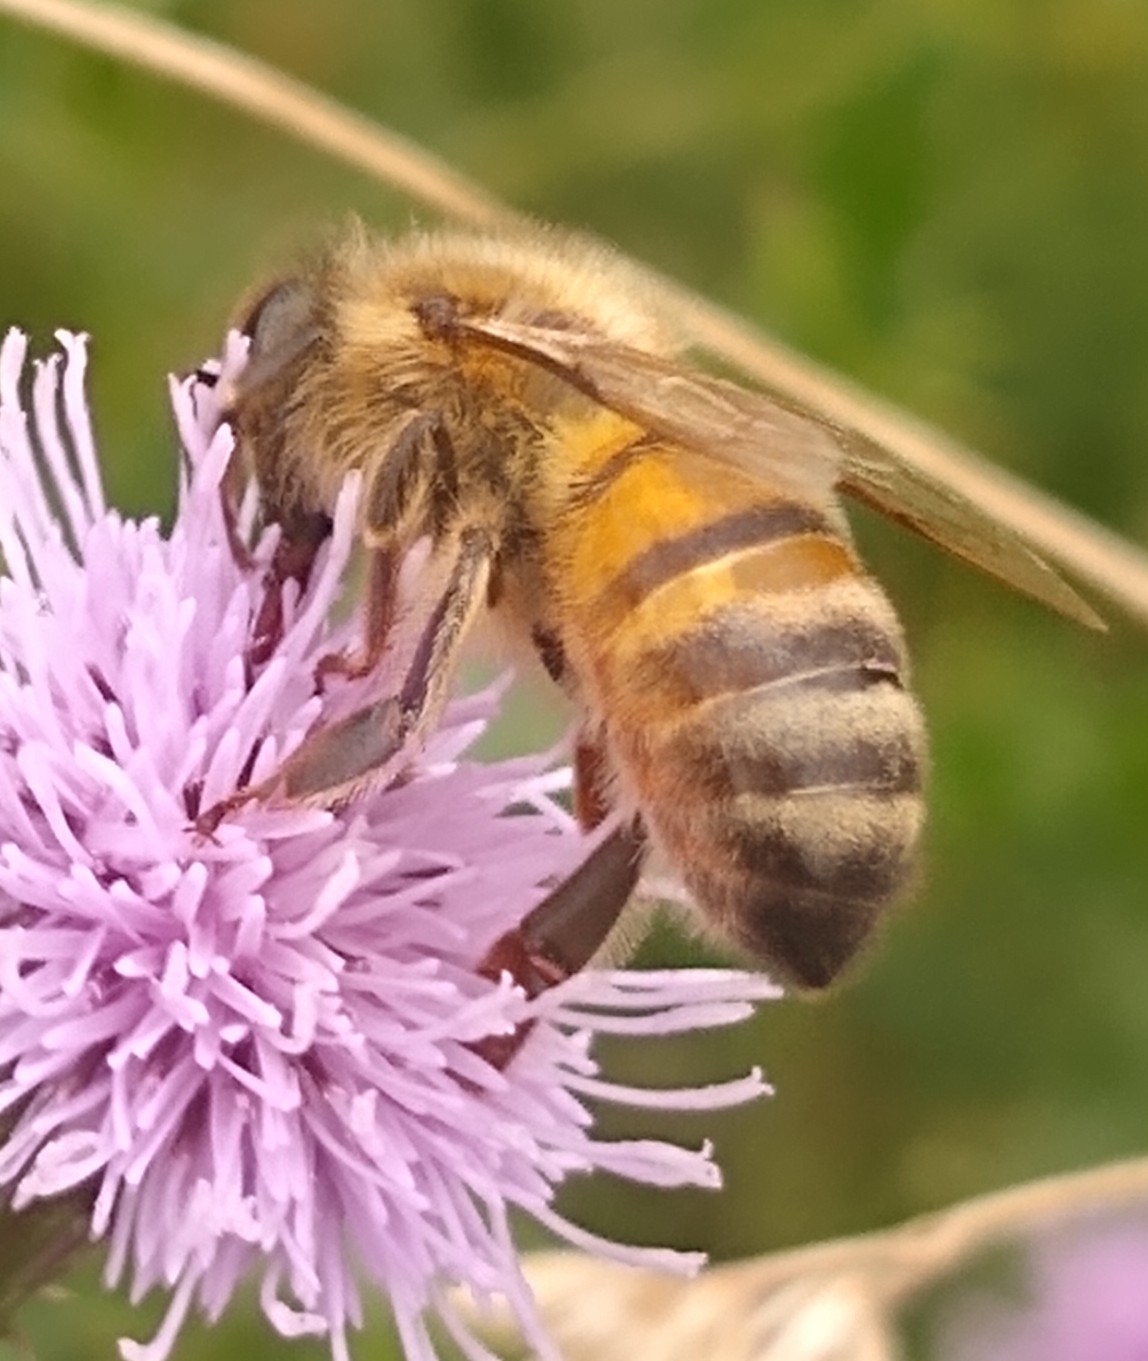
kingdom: Animalia
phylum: Arthropoda
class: Insecta
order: Hymenoptera
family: Apidae
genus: Apis
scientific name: Apis mellifera
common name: Honey bee
